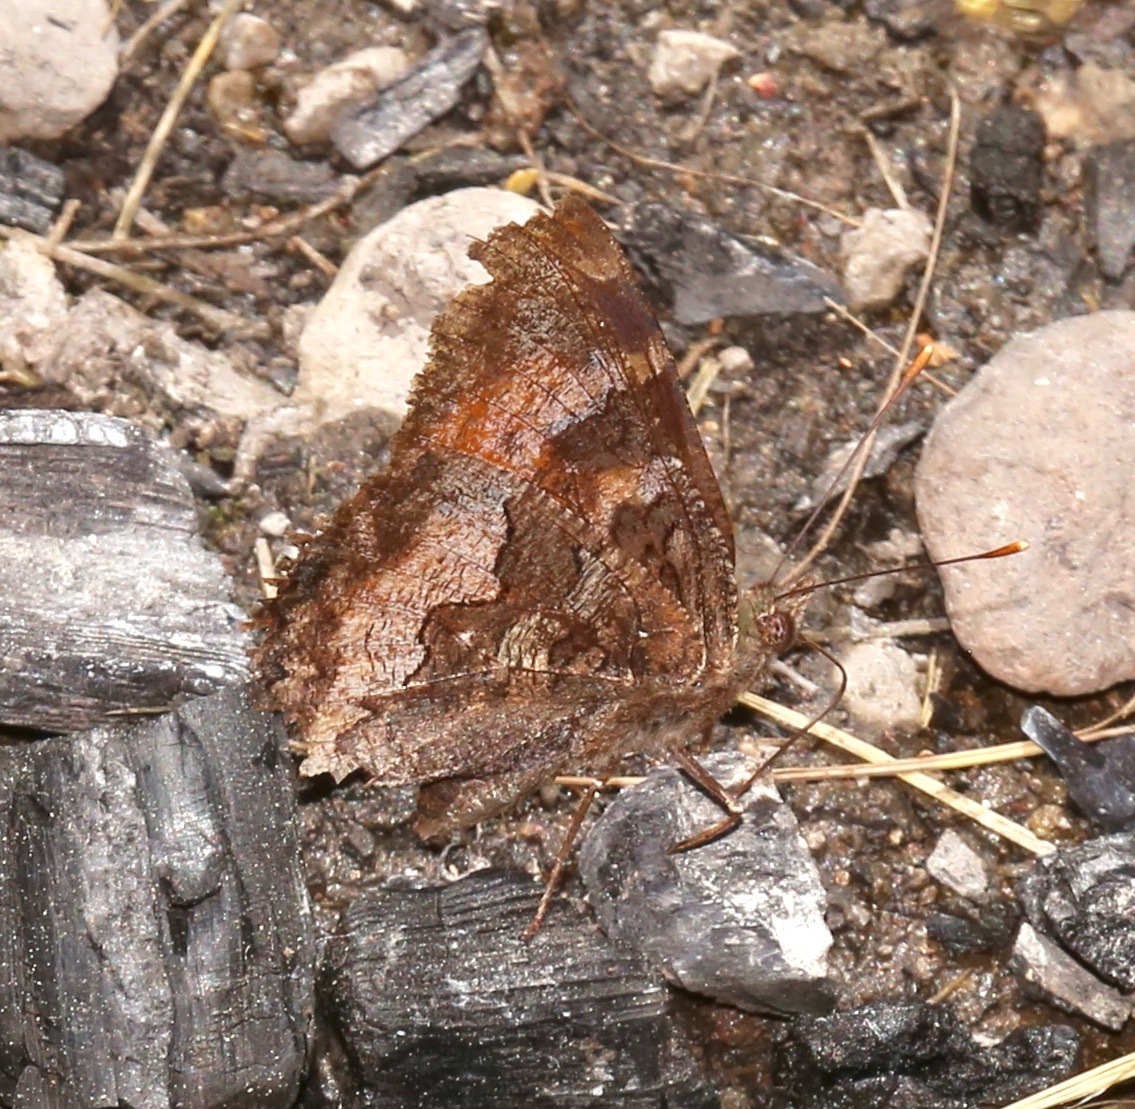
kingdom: Animalia
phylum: Arthropoda
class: Insecta
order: Lepidoptera
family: Nymphalidae
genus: Nymphalis
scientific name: Nymphalis californica
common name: California tortoiseshell
